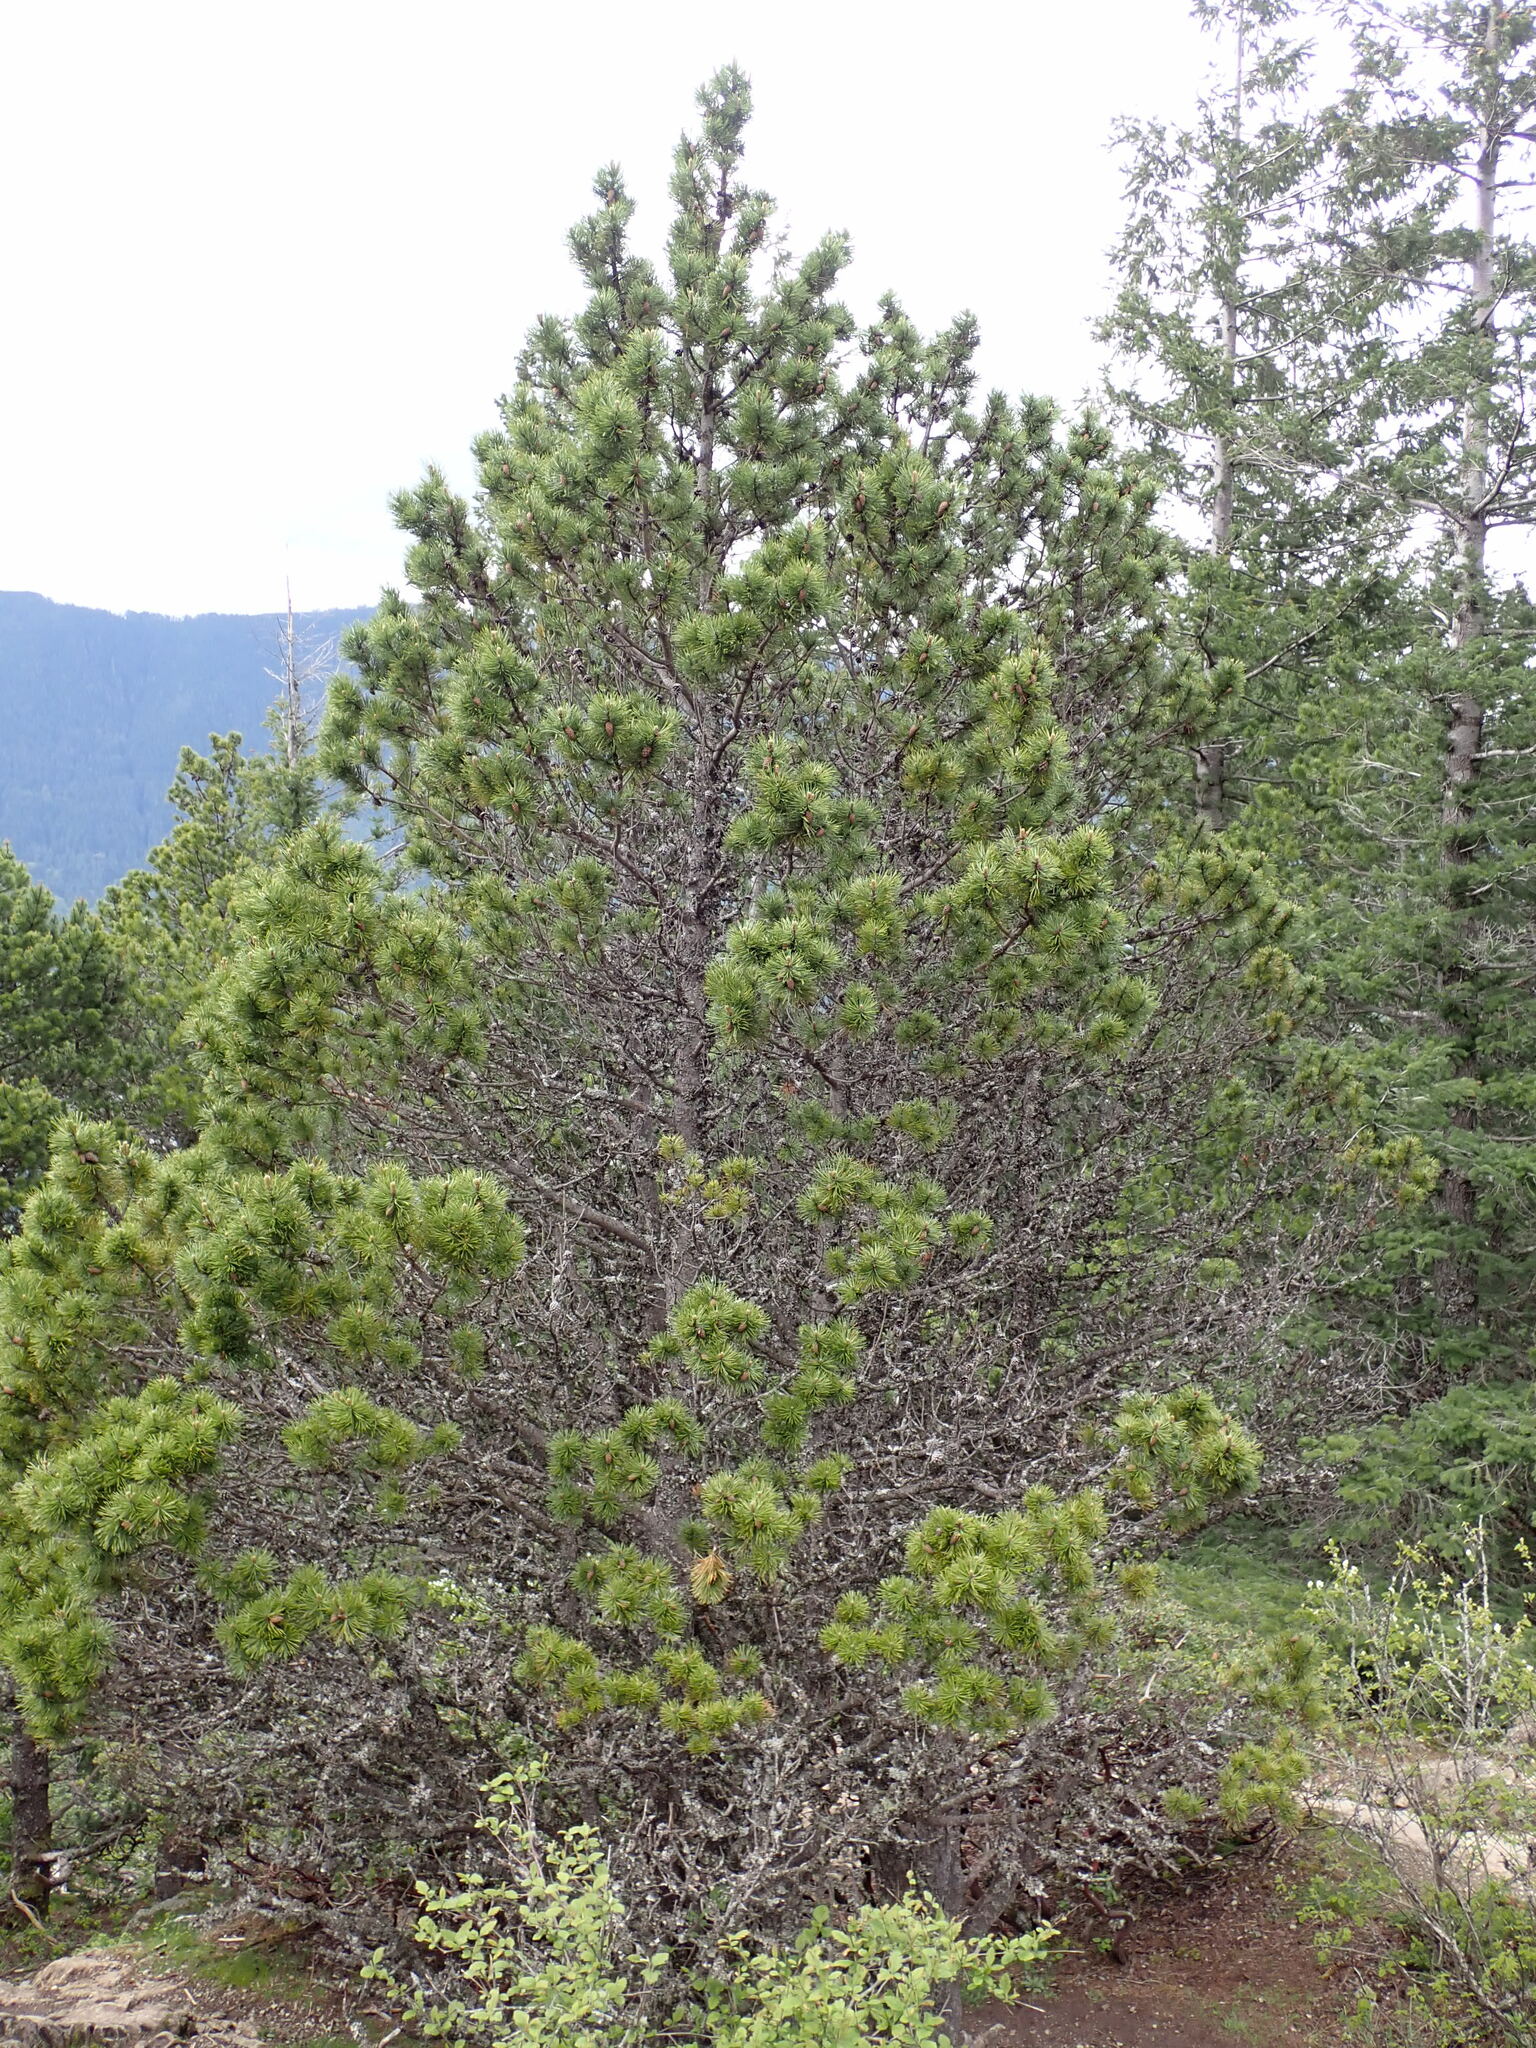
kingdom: Plantae
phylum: Tracheophyta
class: Pinopsida
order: Pinales
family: Pinaceae
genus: Pinus
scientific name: Pinus contorta
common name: Lodgepole pine
